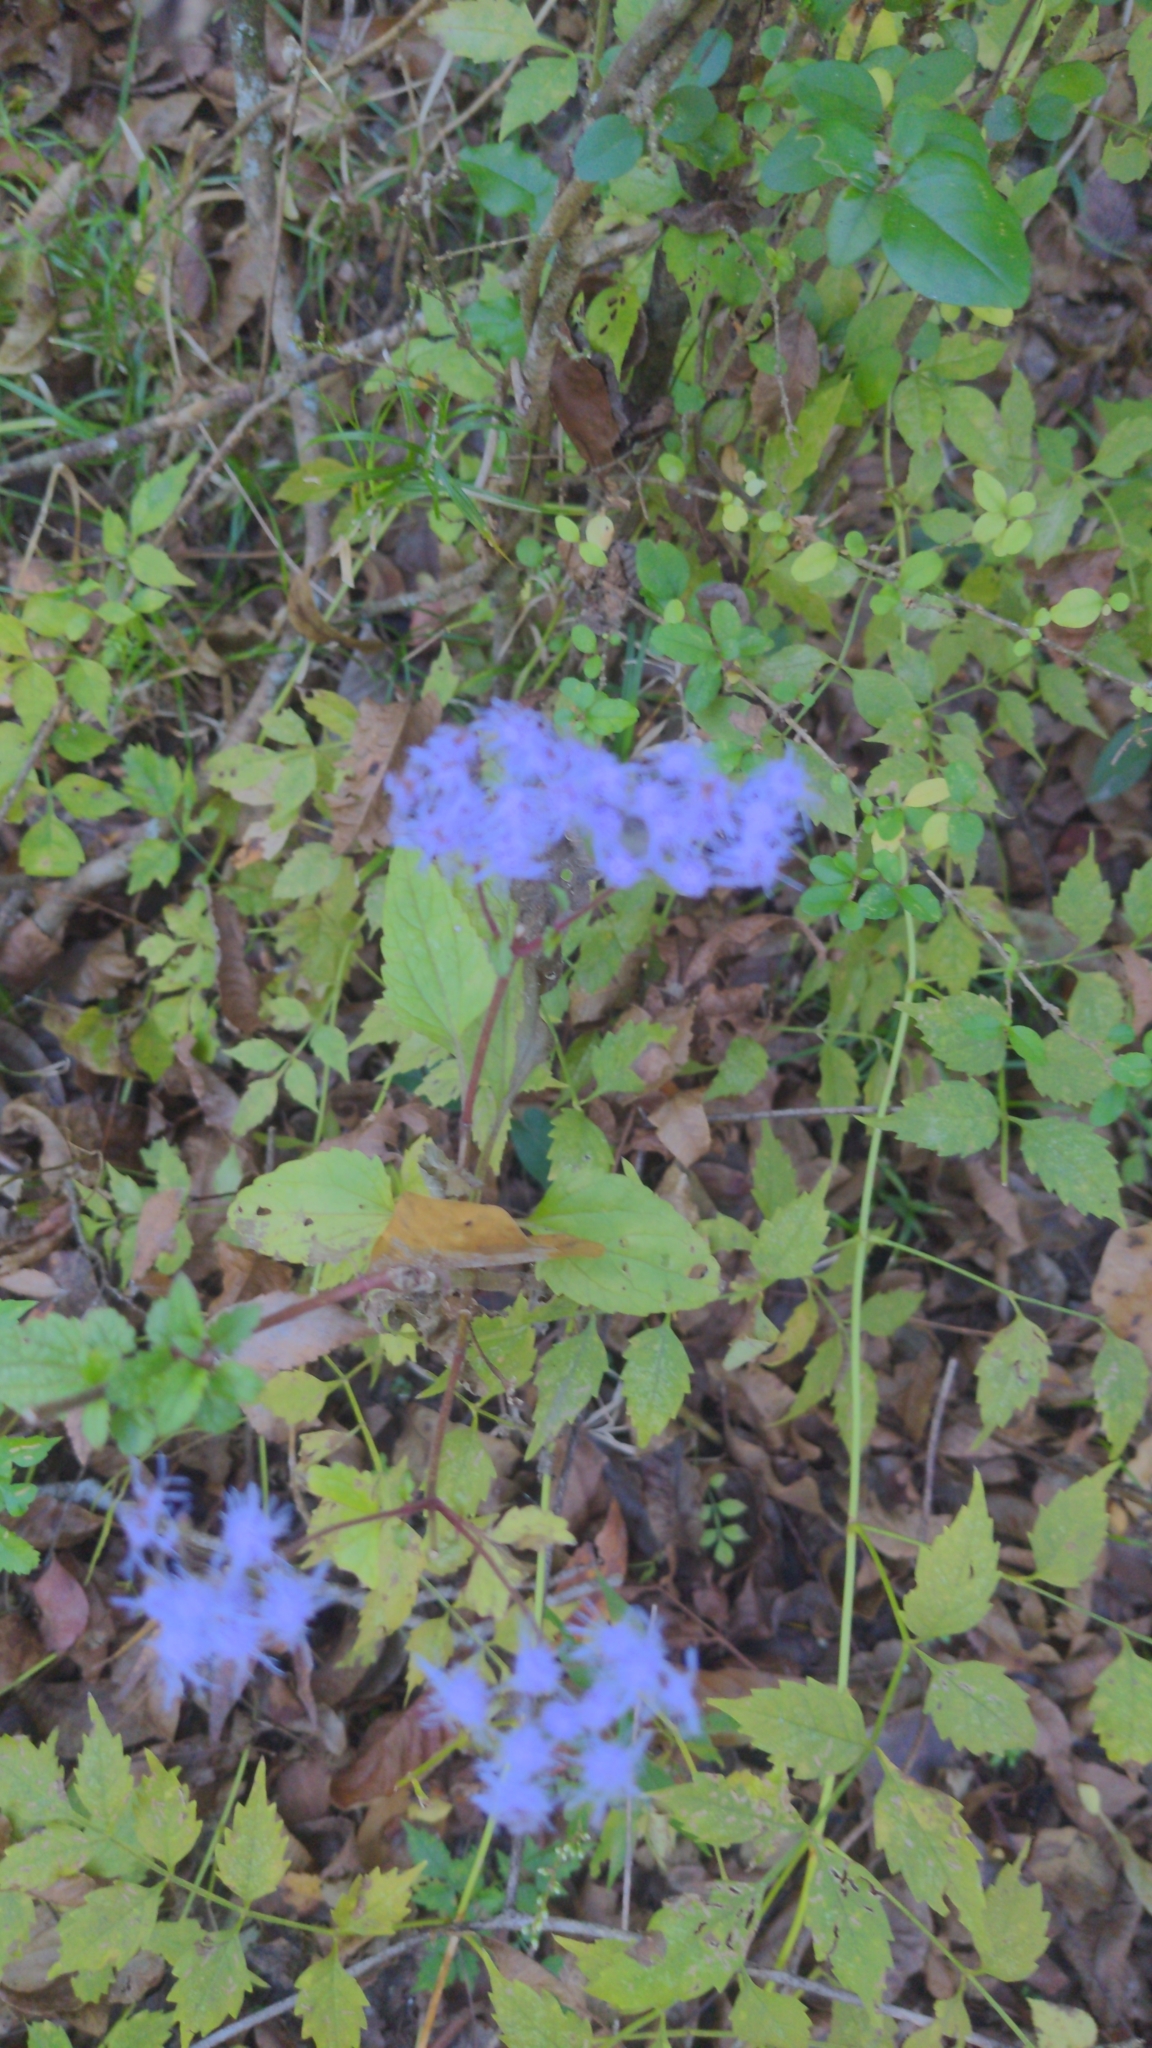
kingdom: Plantae
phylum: Tracheophyta
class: Magnoliopsida
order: Asterales
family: Asteraceae
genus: Conoclinium
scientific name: Conoclinium coelestinum
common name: Blue mistflower
